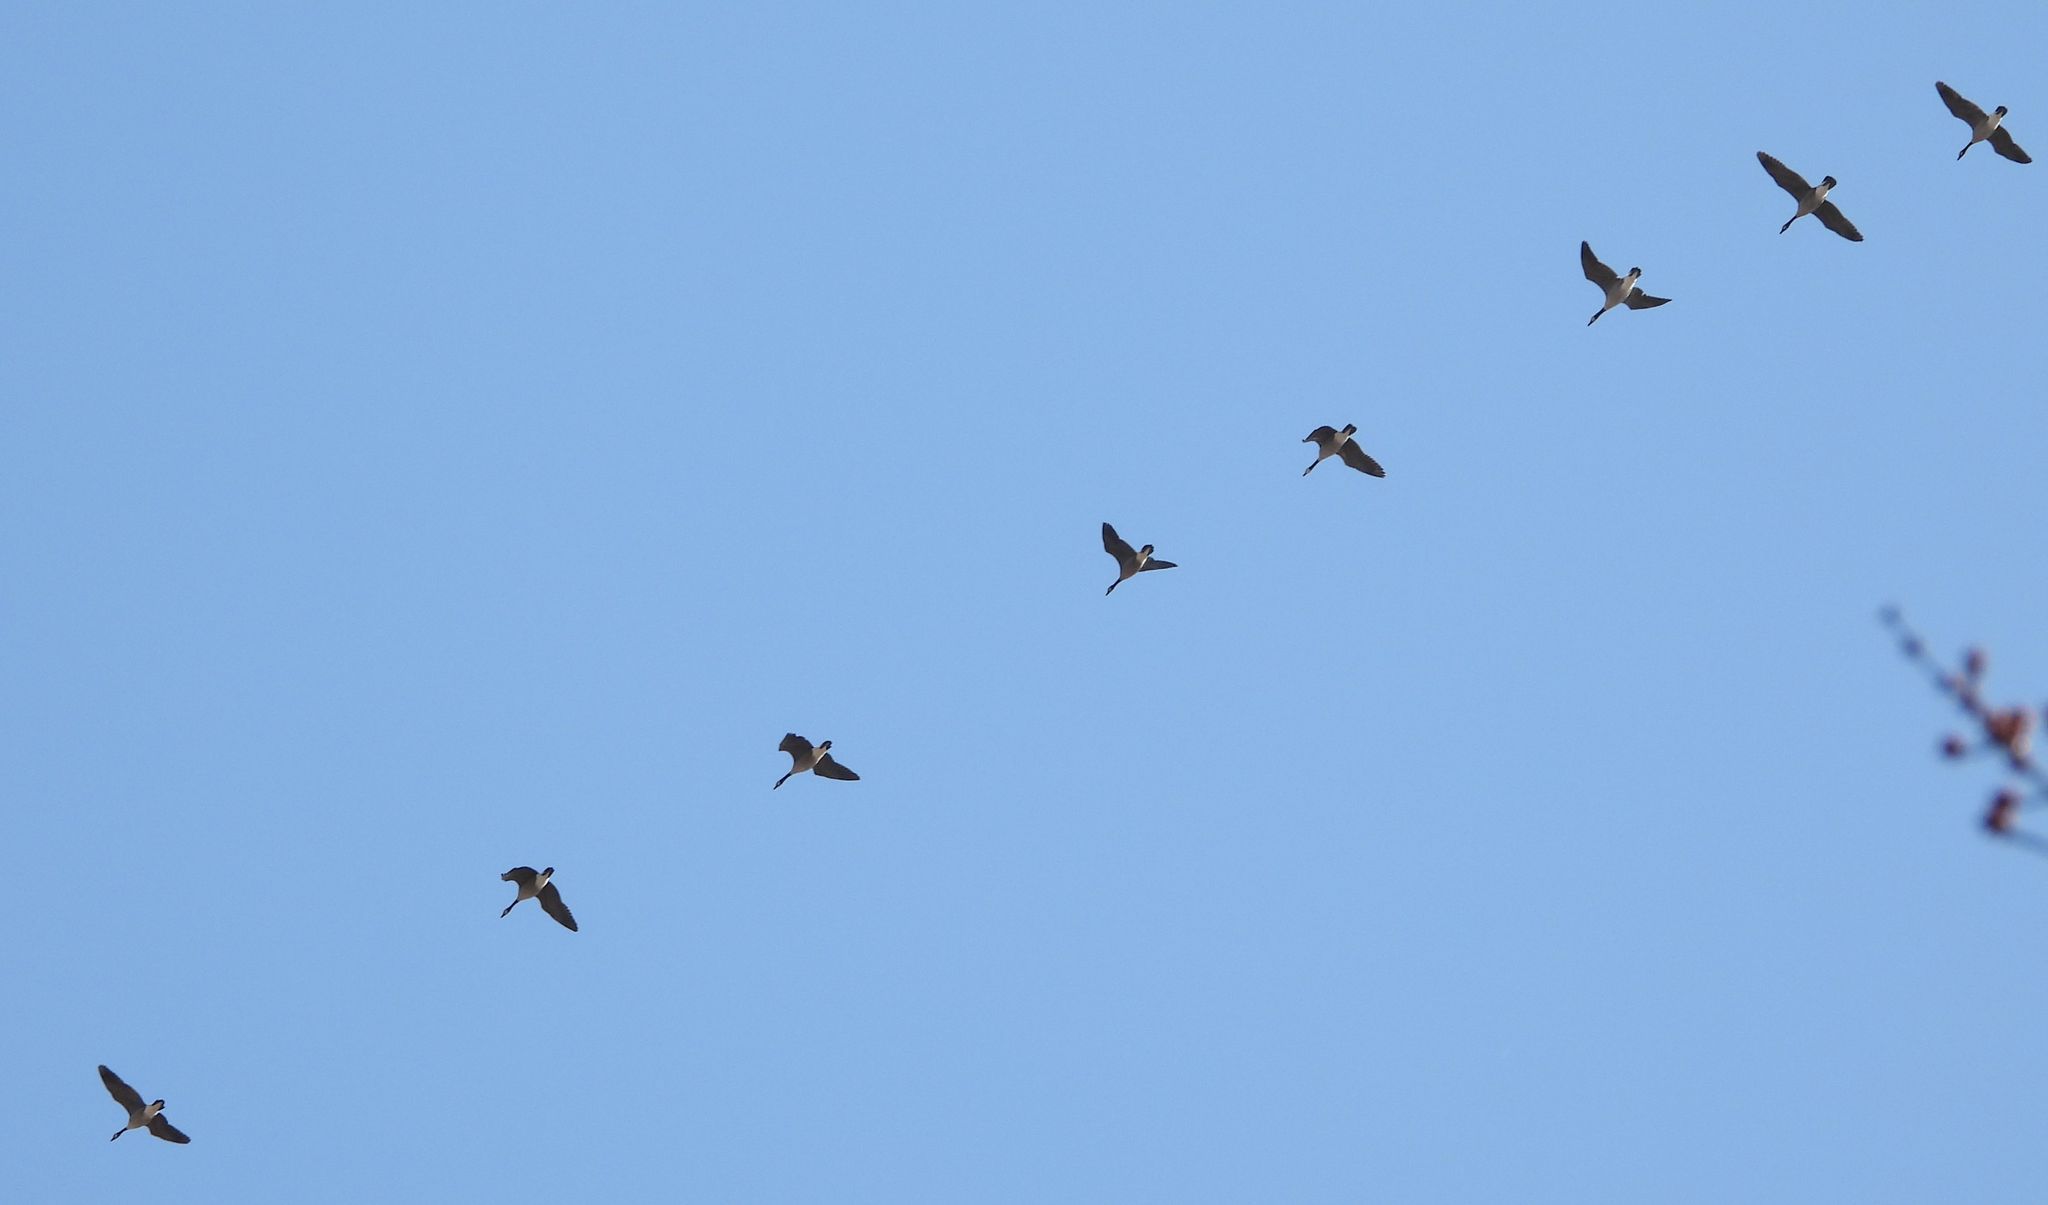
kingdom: Animalia
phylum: Chordata
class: Aves
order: Anseriformes
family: Anatidae
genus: Branta
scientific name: Branta canadensis
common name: Canada goose
